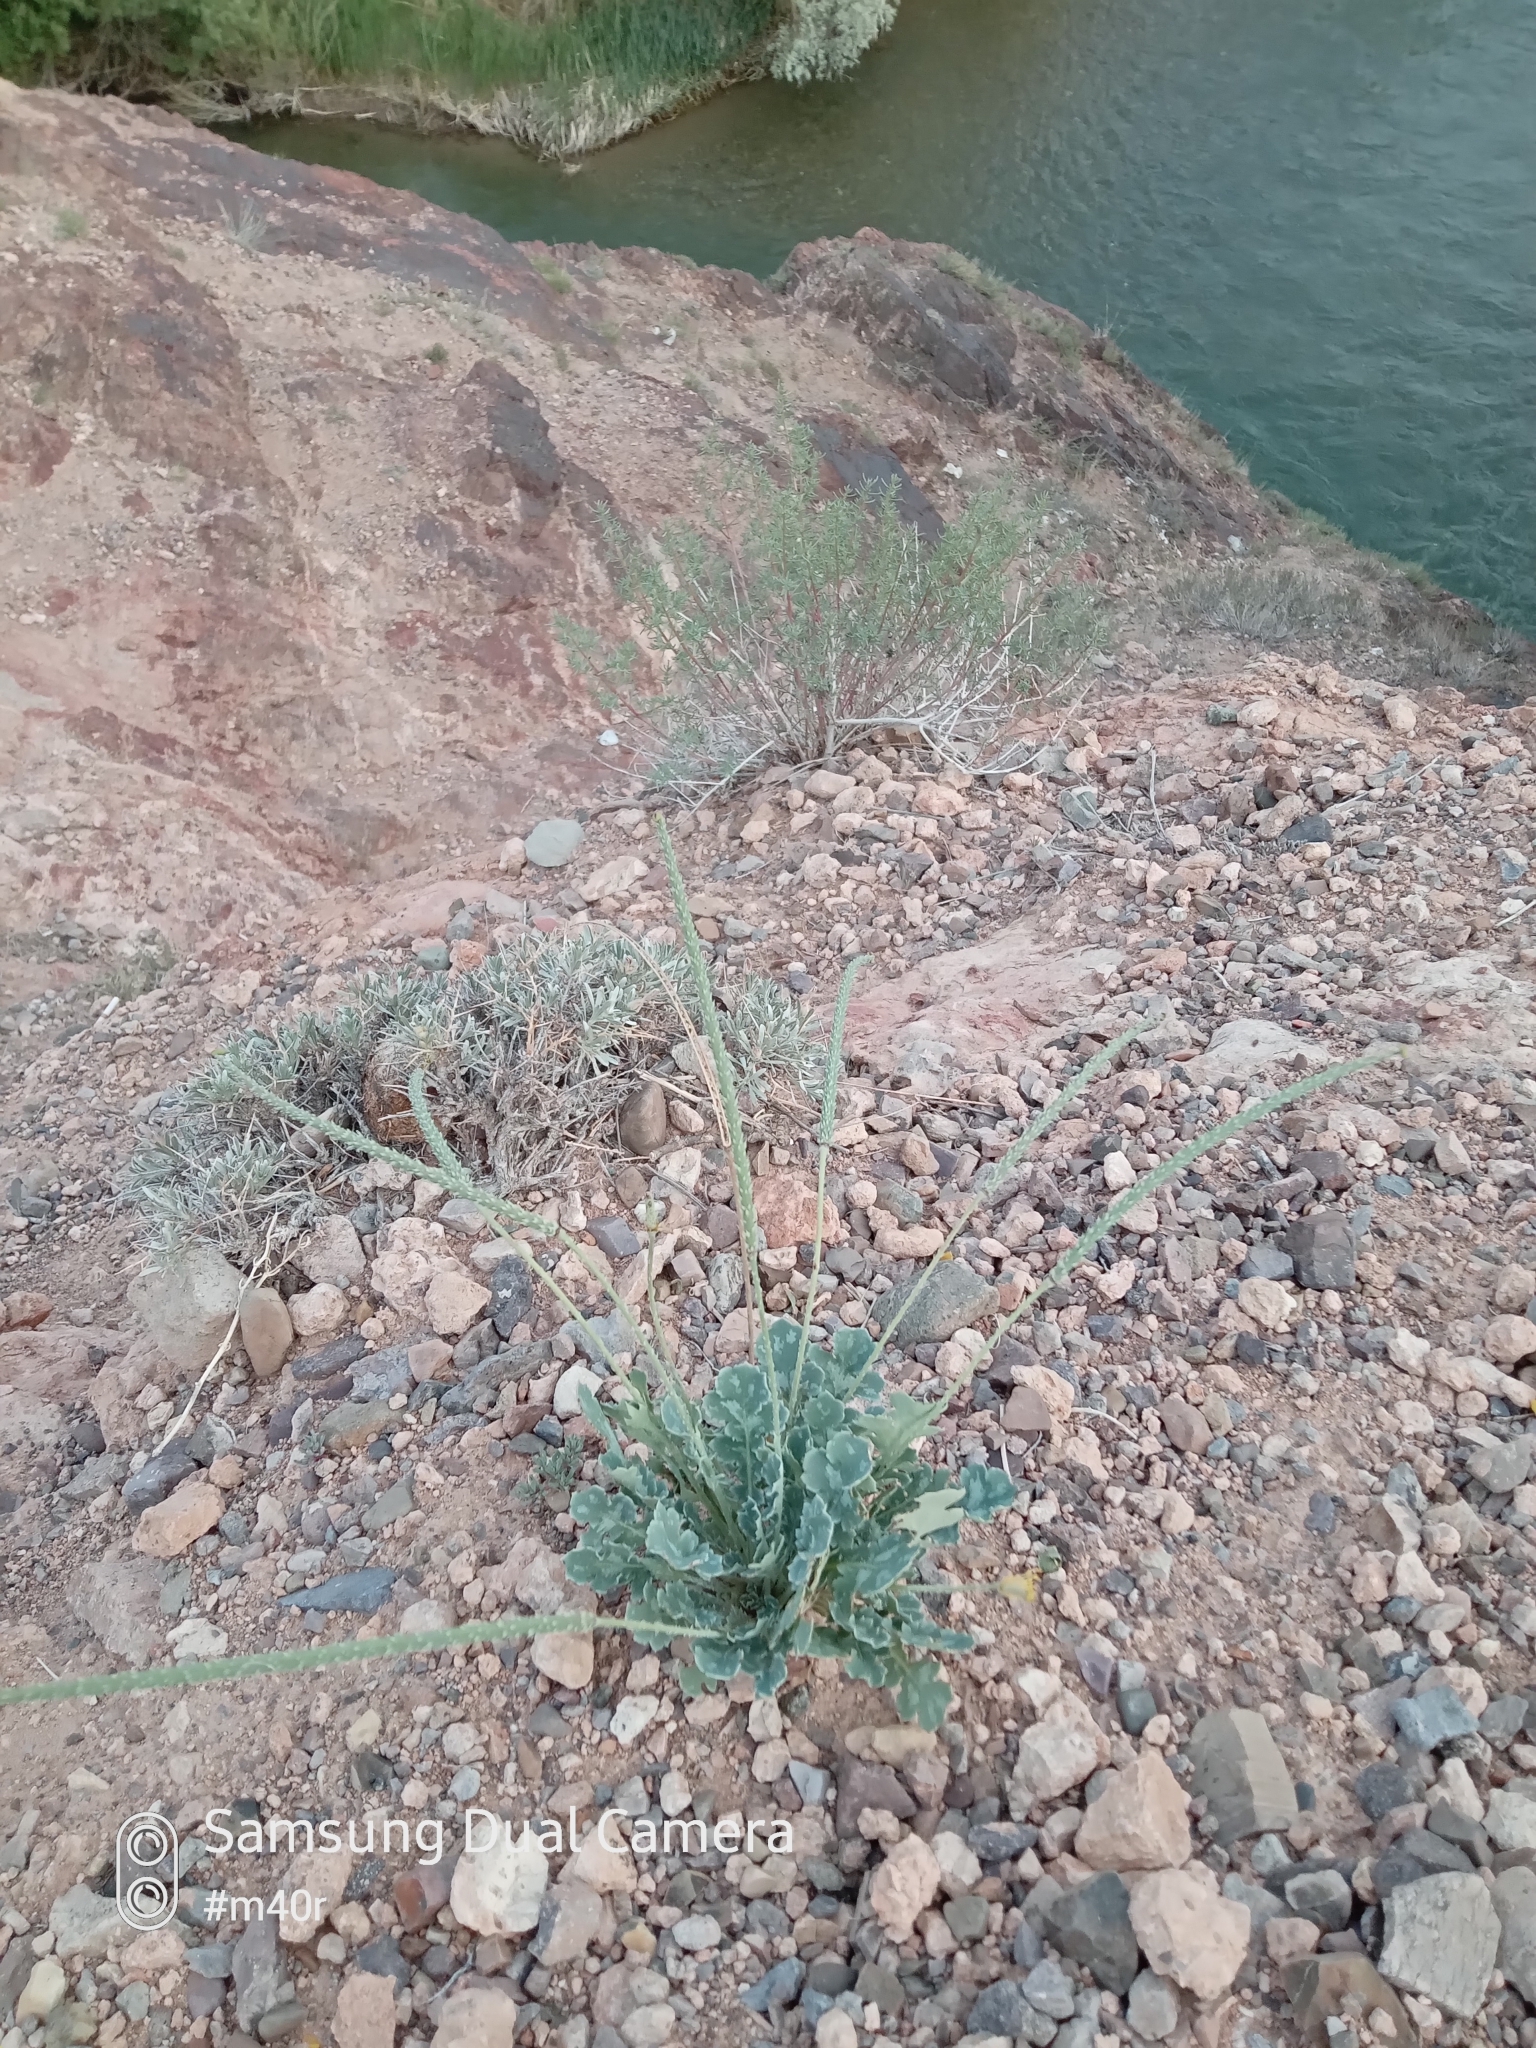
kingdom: Plantae
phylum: Tracheophyta
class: Magnoliopsida
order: Ranunculales
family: Papaveraceae
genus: Glaucium
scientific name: Glaucium squamigerum
